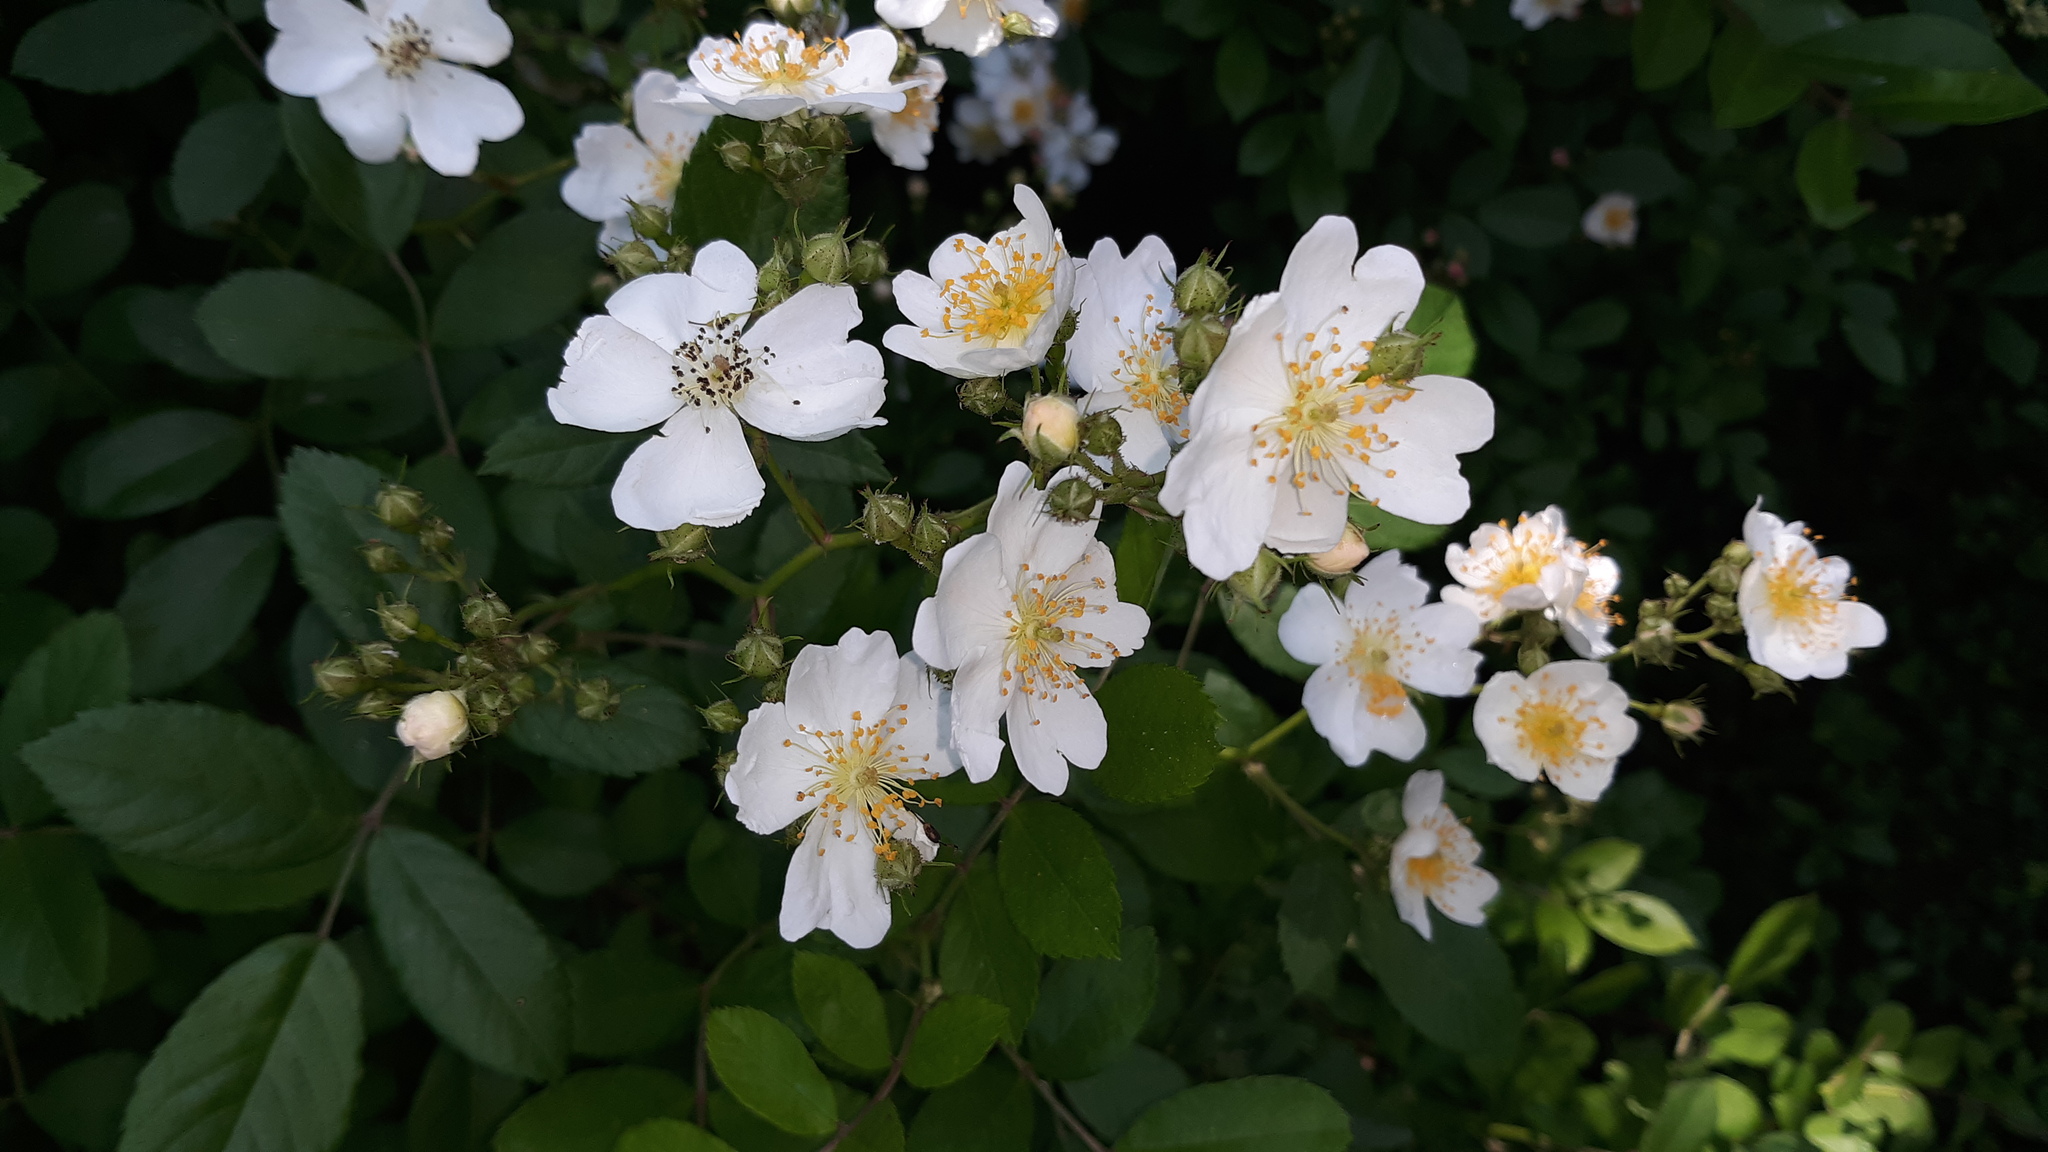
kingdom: Plantae
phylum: Tracheophyta
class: Magnoliopsida
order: Rosales
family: Rosaceae
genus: Rosa
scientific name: Rosa multiflora
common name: Multiflora rose
